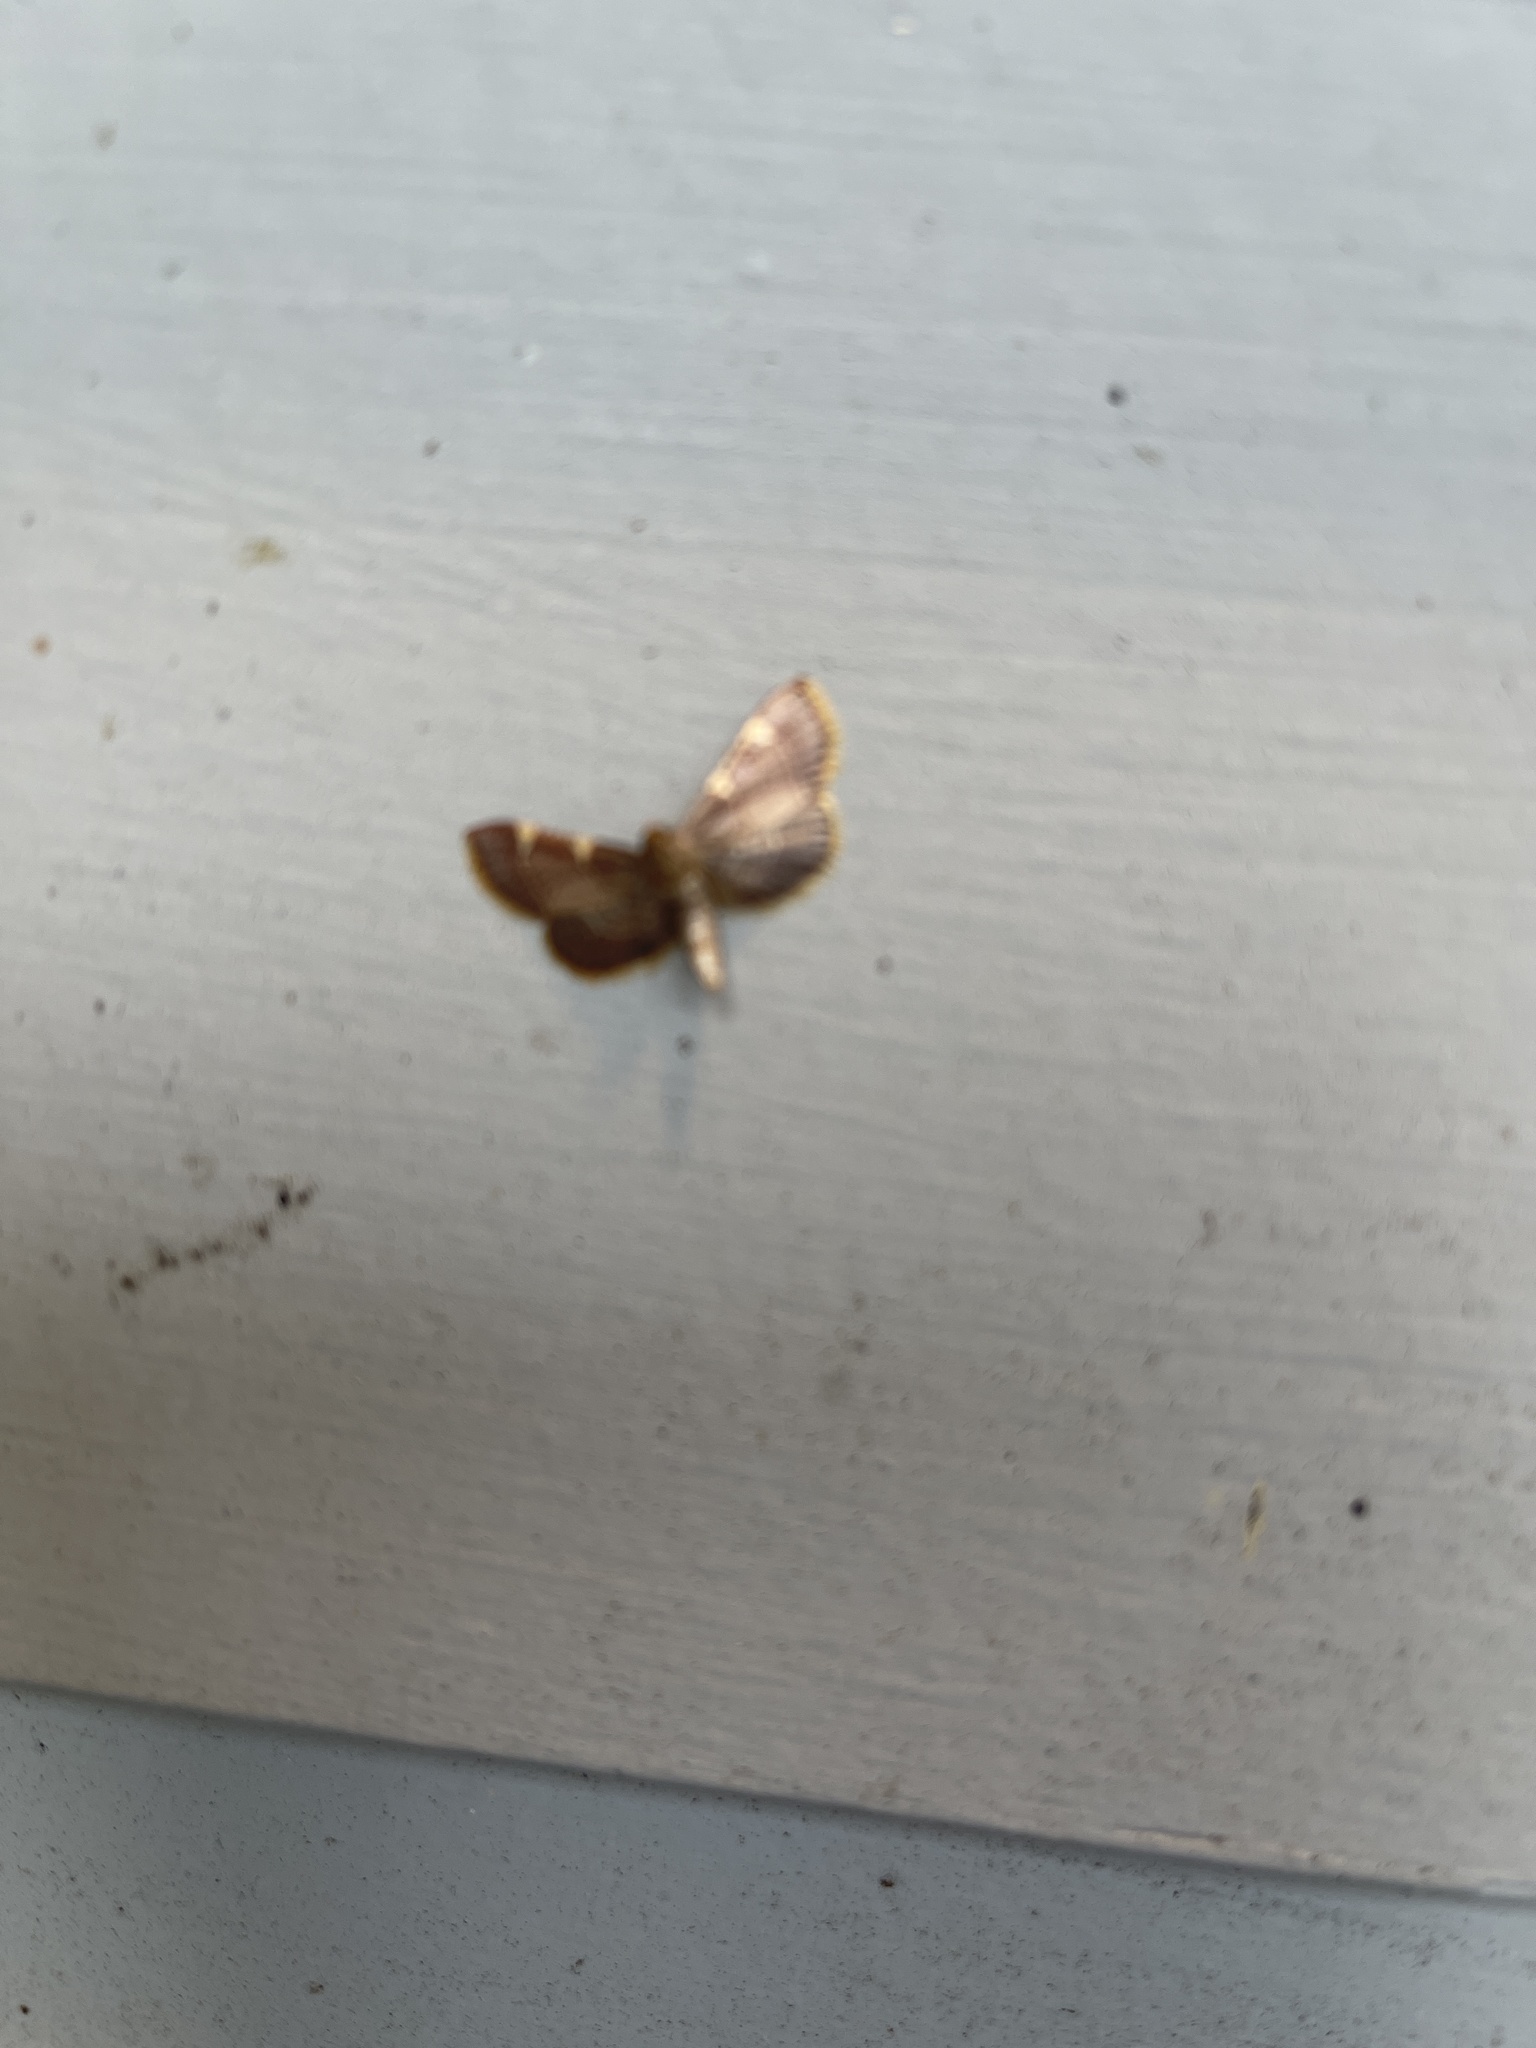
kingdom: Animalia
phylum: Arthropoda
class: Insecta
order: Lepidoptera
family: Pyralidae
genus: Hypsopygia
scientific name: Hypsopygia costalis
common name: Gold triangle
